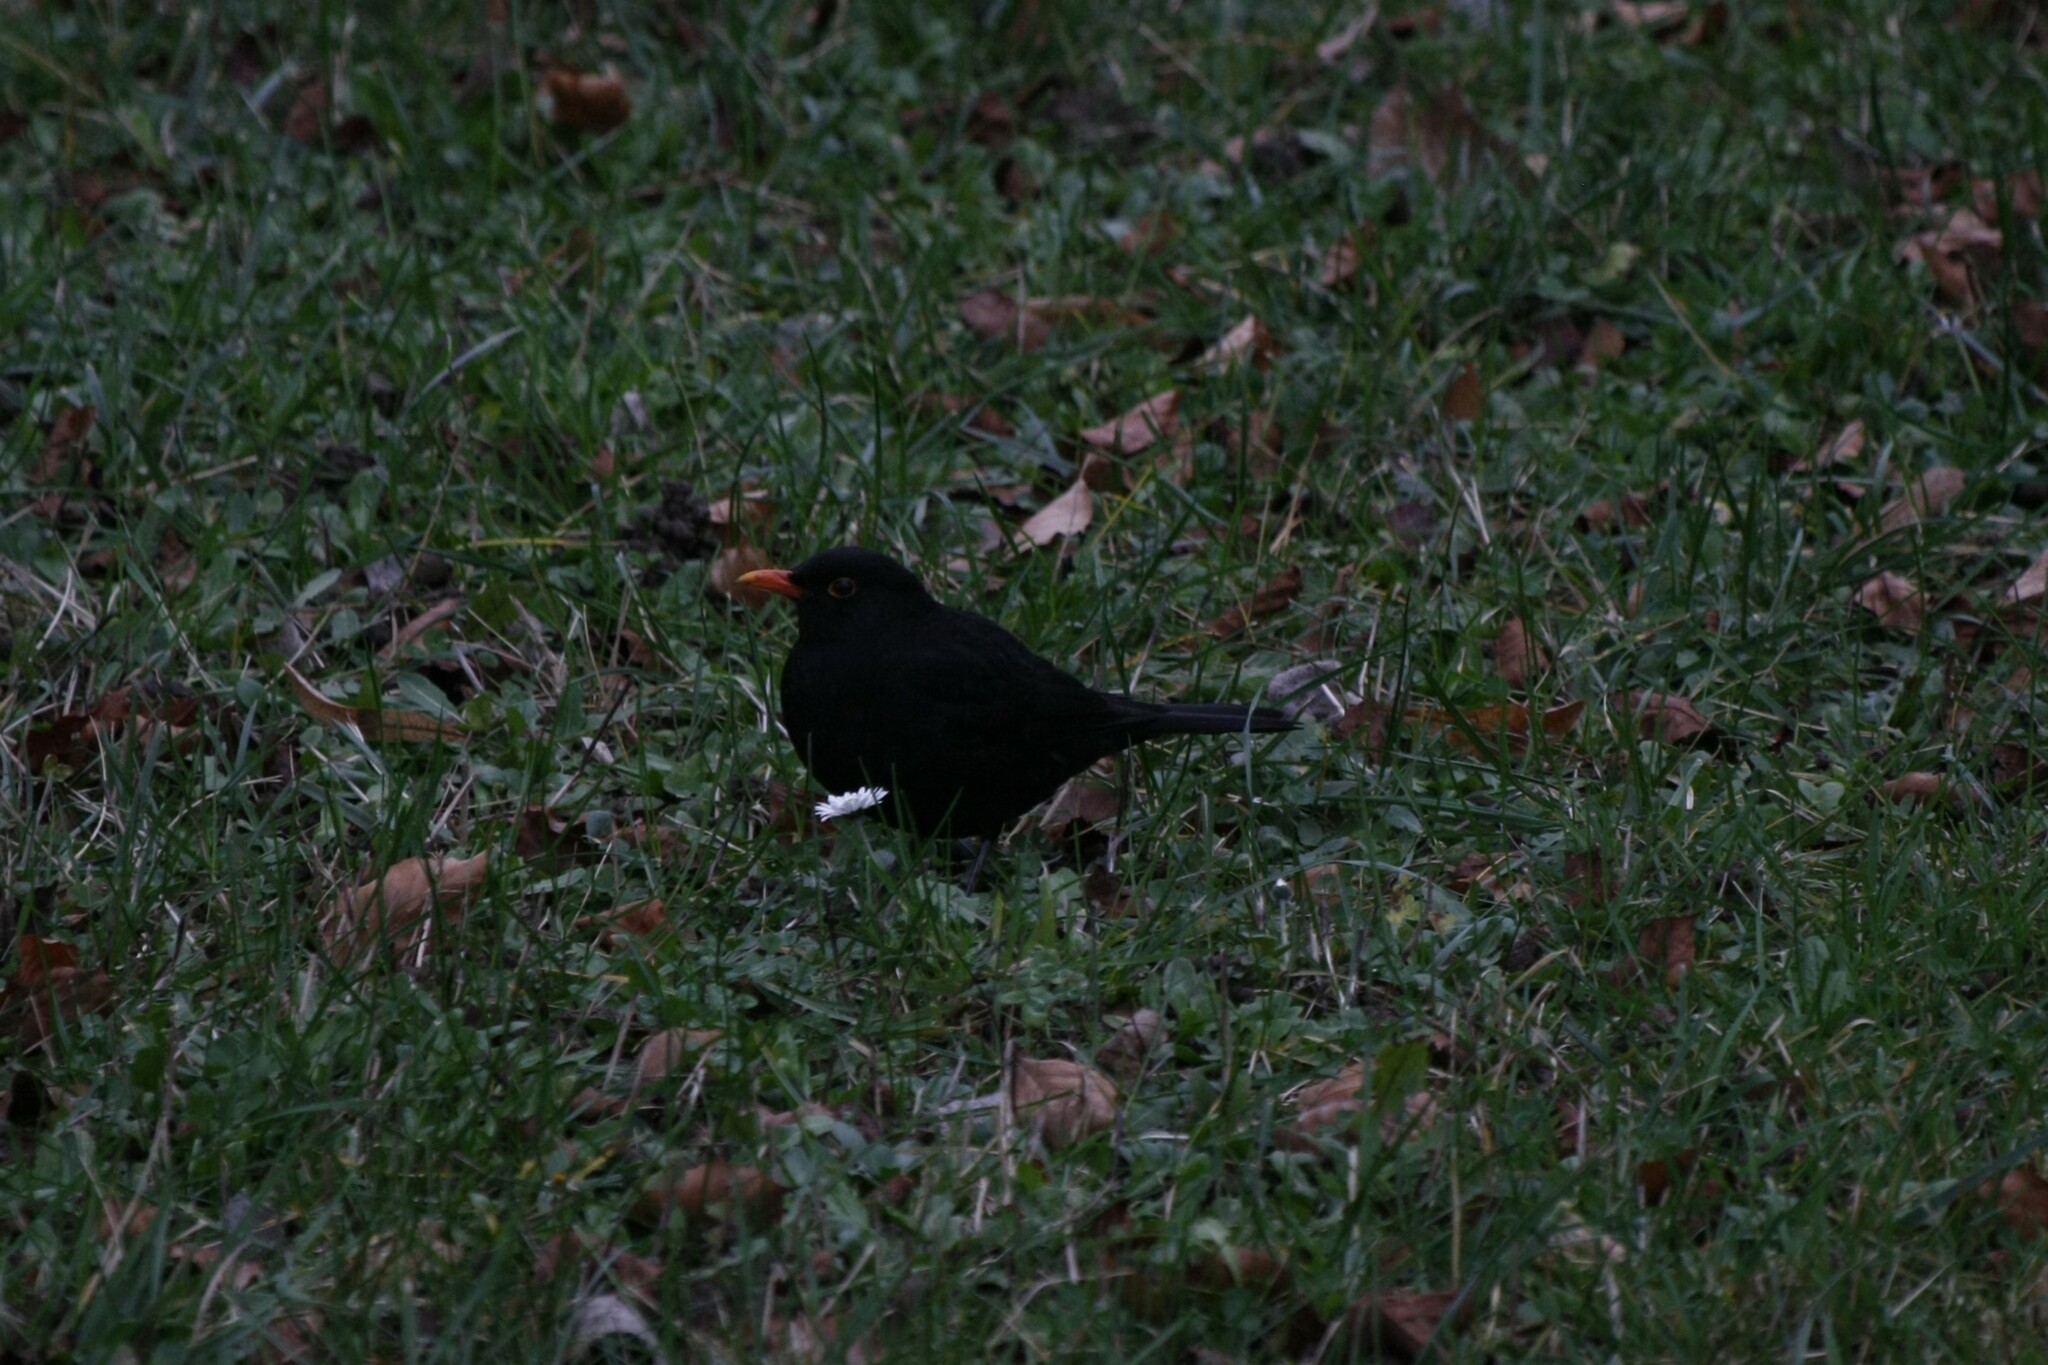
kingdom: Animalia
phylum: Chordata
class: Aves
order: Passeriformes
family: Turdidae
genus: Turdus
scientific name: Turdus merula
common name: Common blackbird
